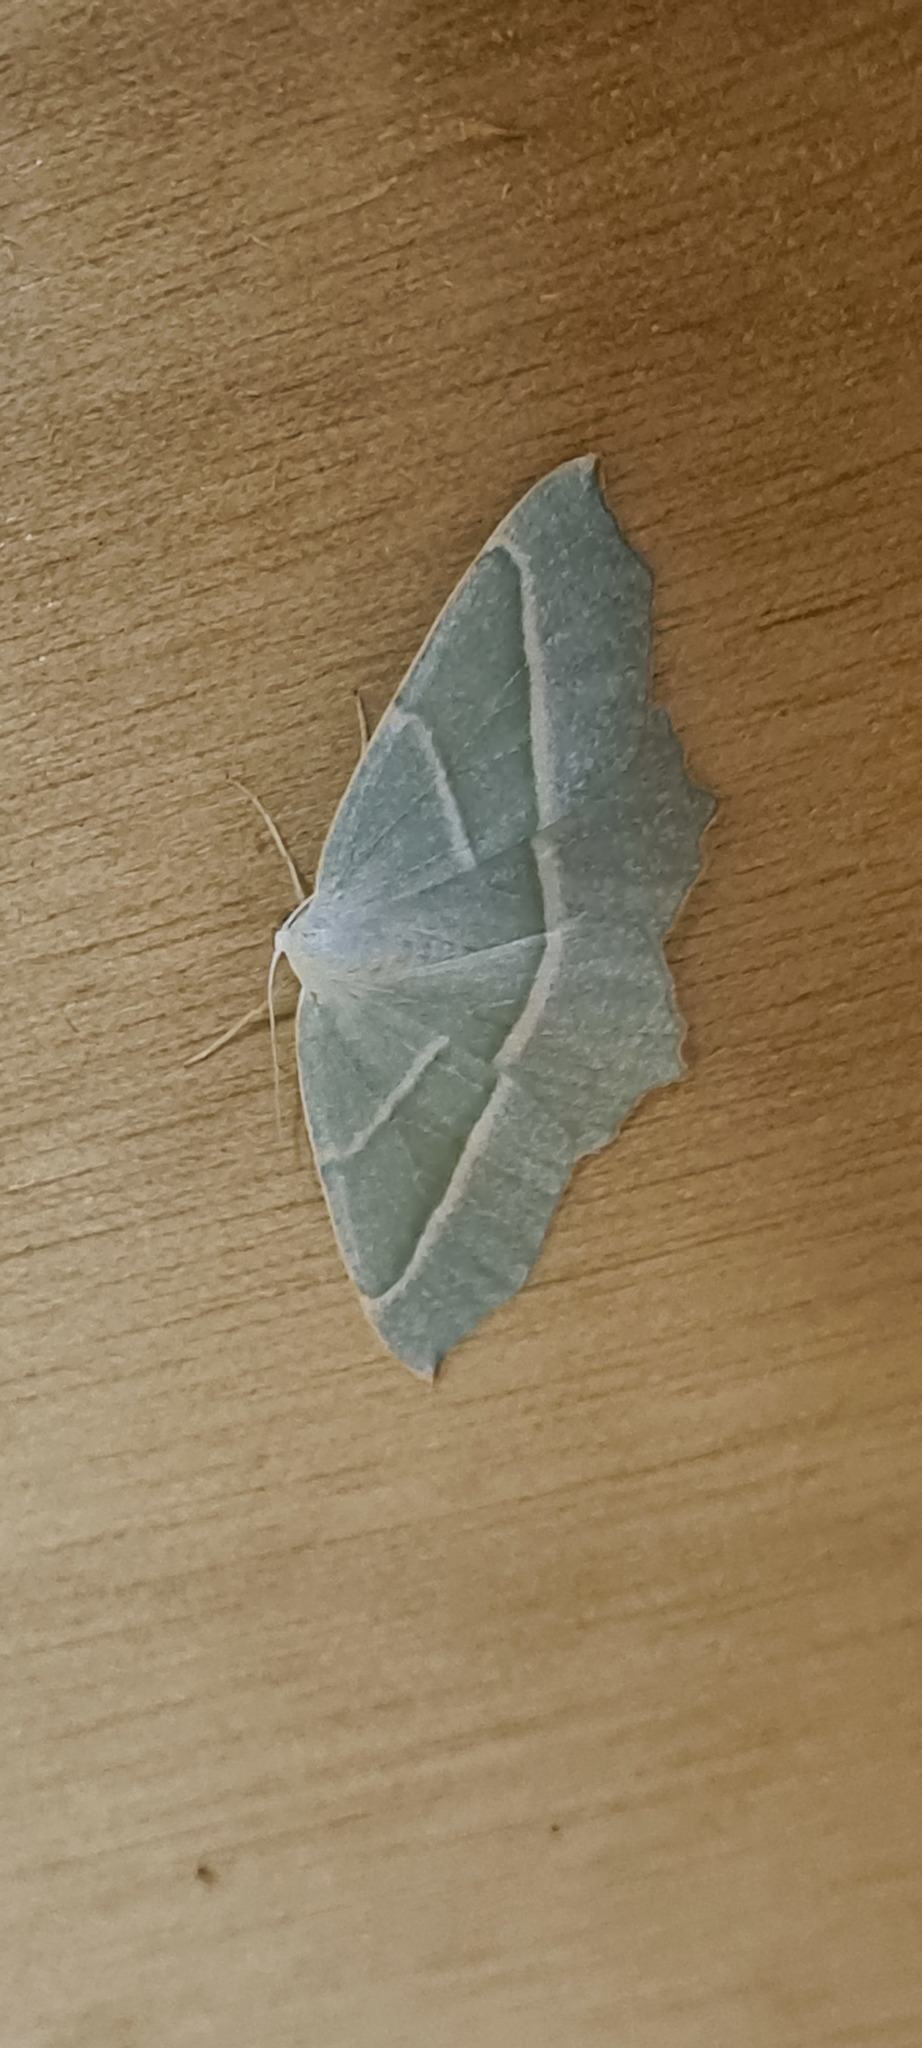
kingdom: Animalia
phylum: Arthropoda
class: Insecta
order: Lepidoptera
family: Geometridae
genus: Campaea
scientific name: Campaea margaritaria
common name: Light emerald
